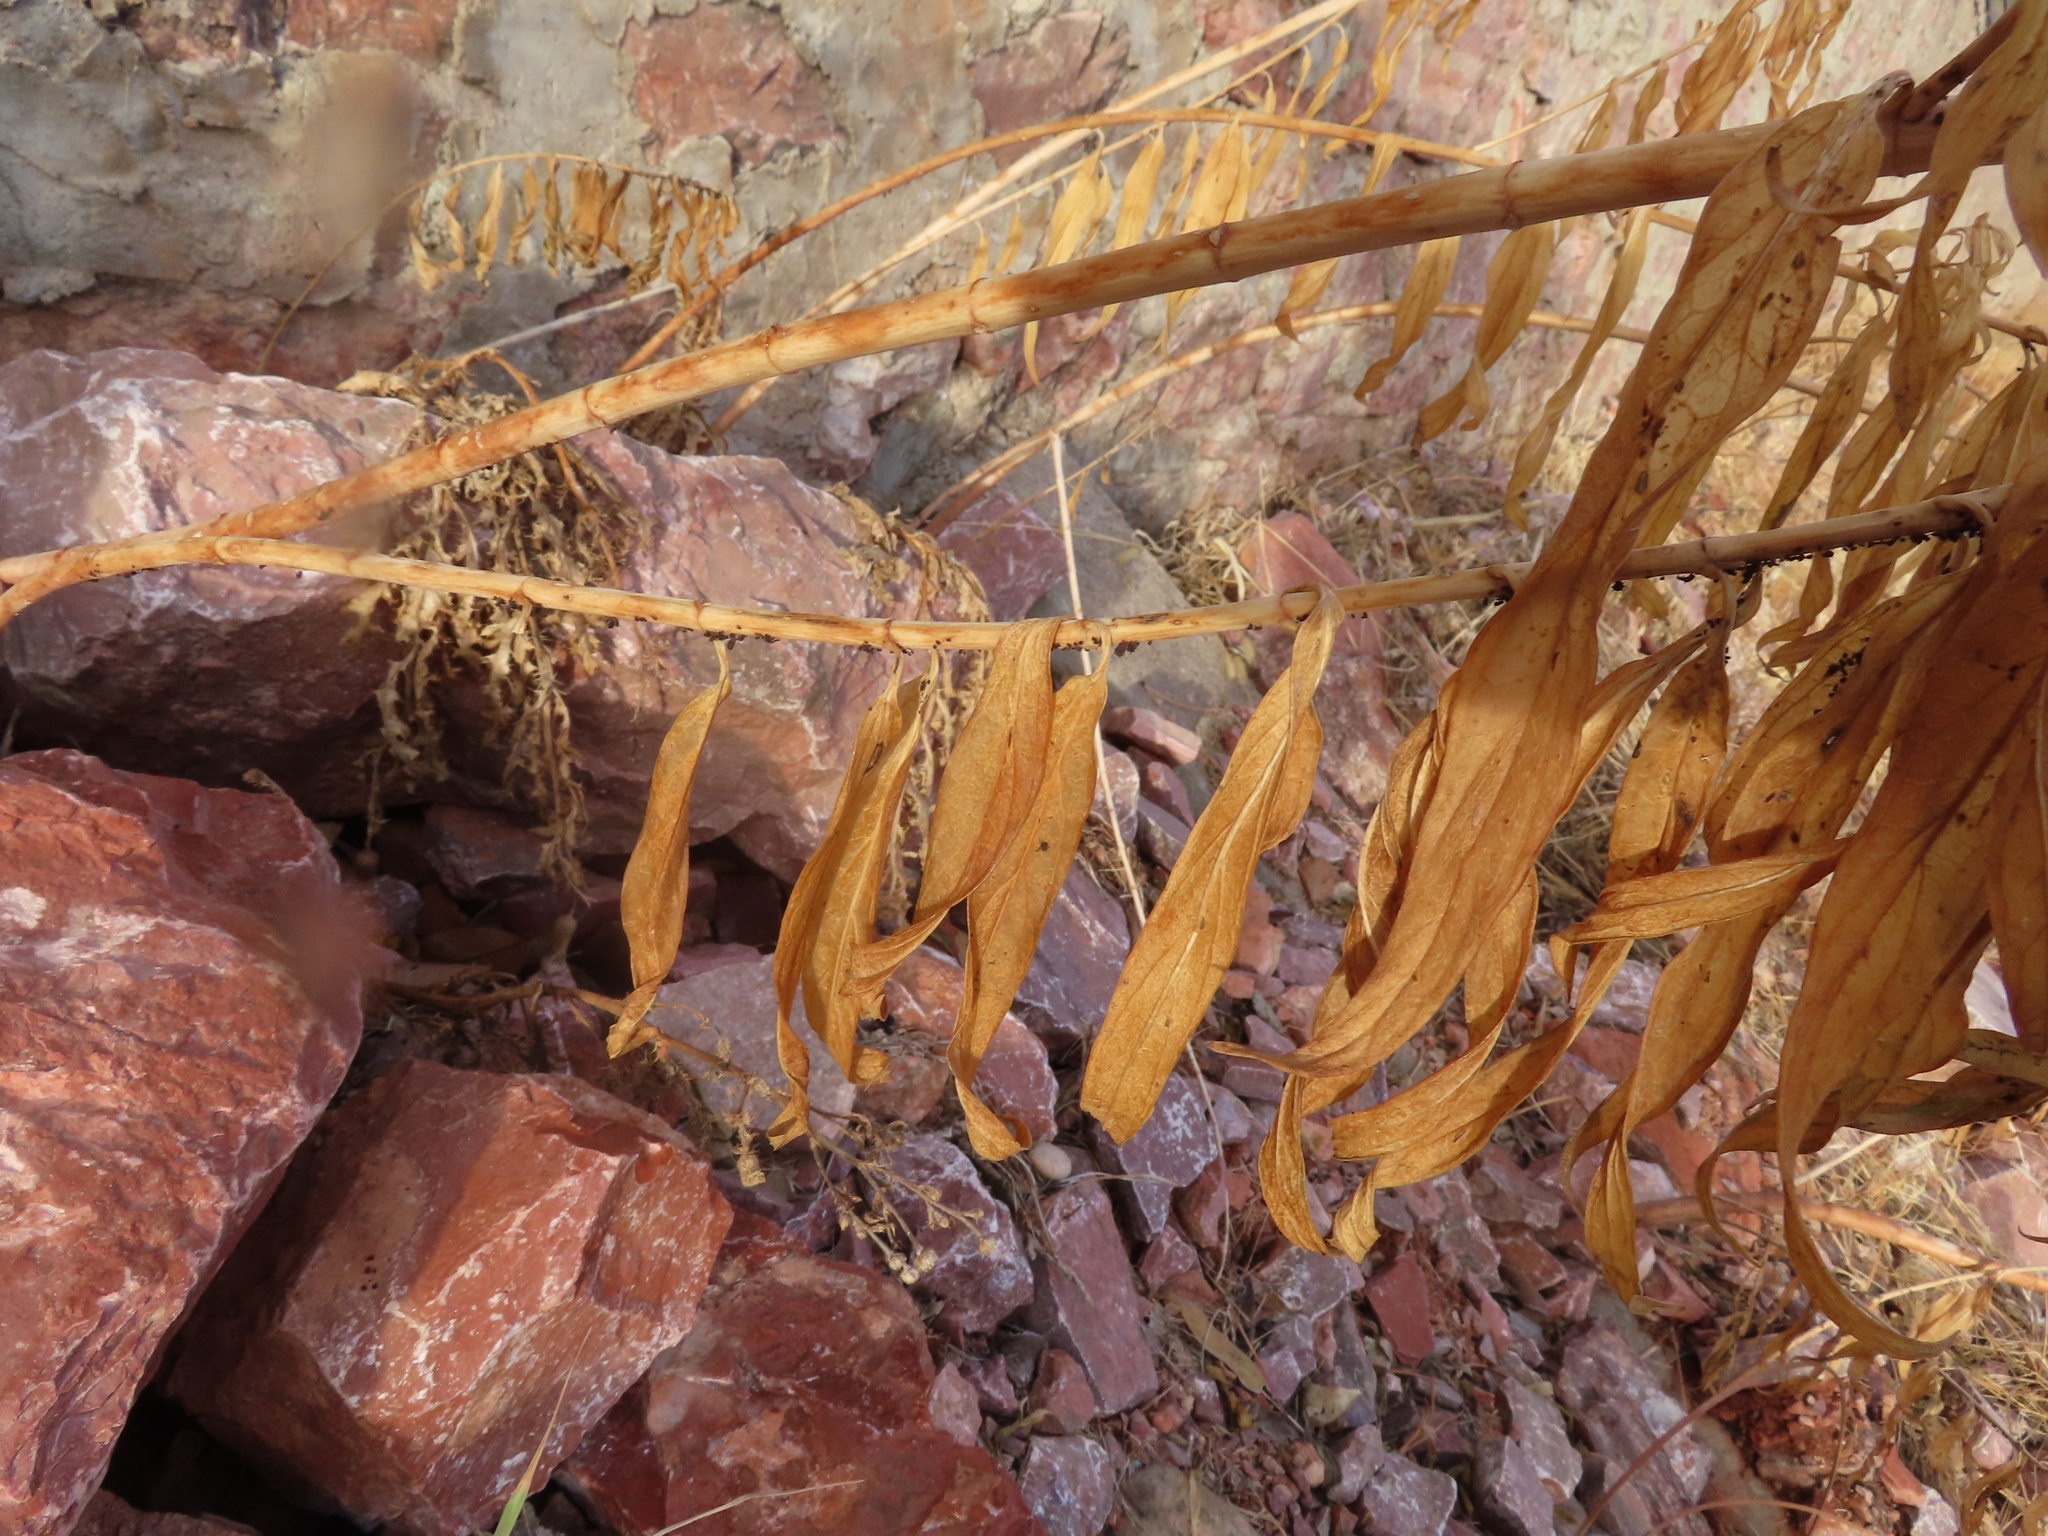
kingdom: Plantae
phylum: Tracheophyta
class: Magnoliopsida
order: Gentianales
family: Apocynaceae
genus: Asclepias
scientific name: Asclepias incarnata
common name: Swamp milkweed
